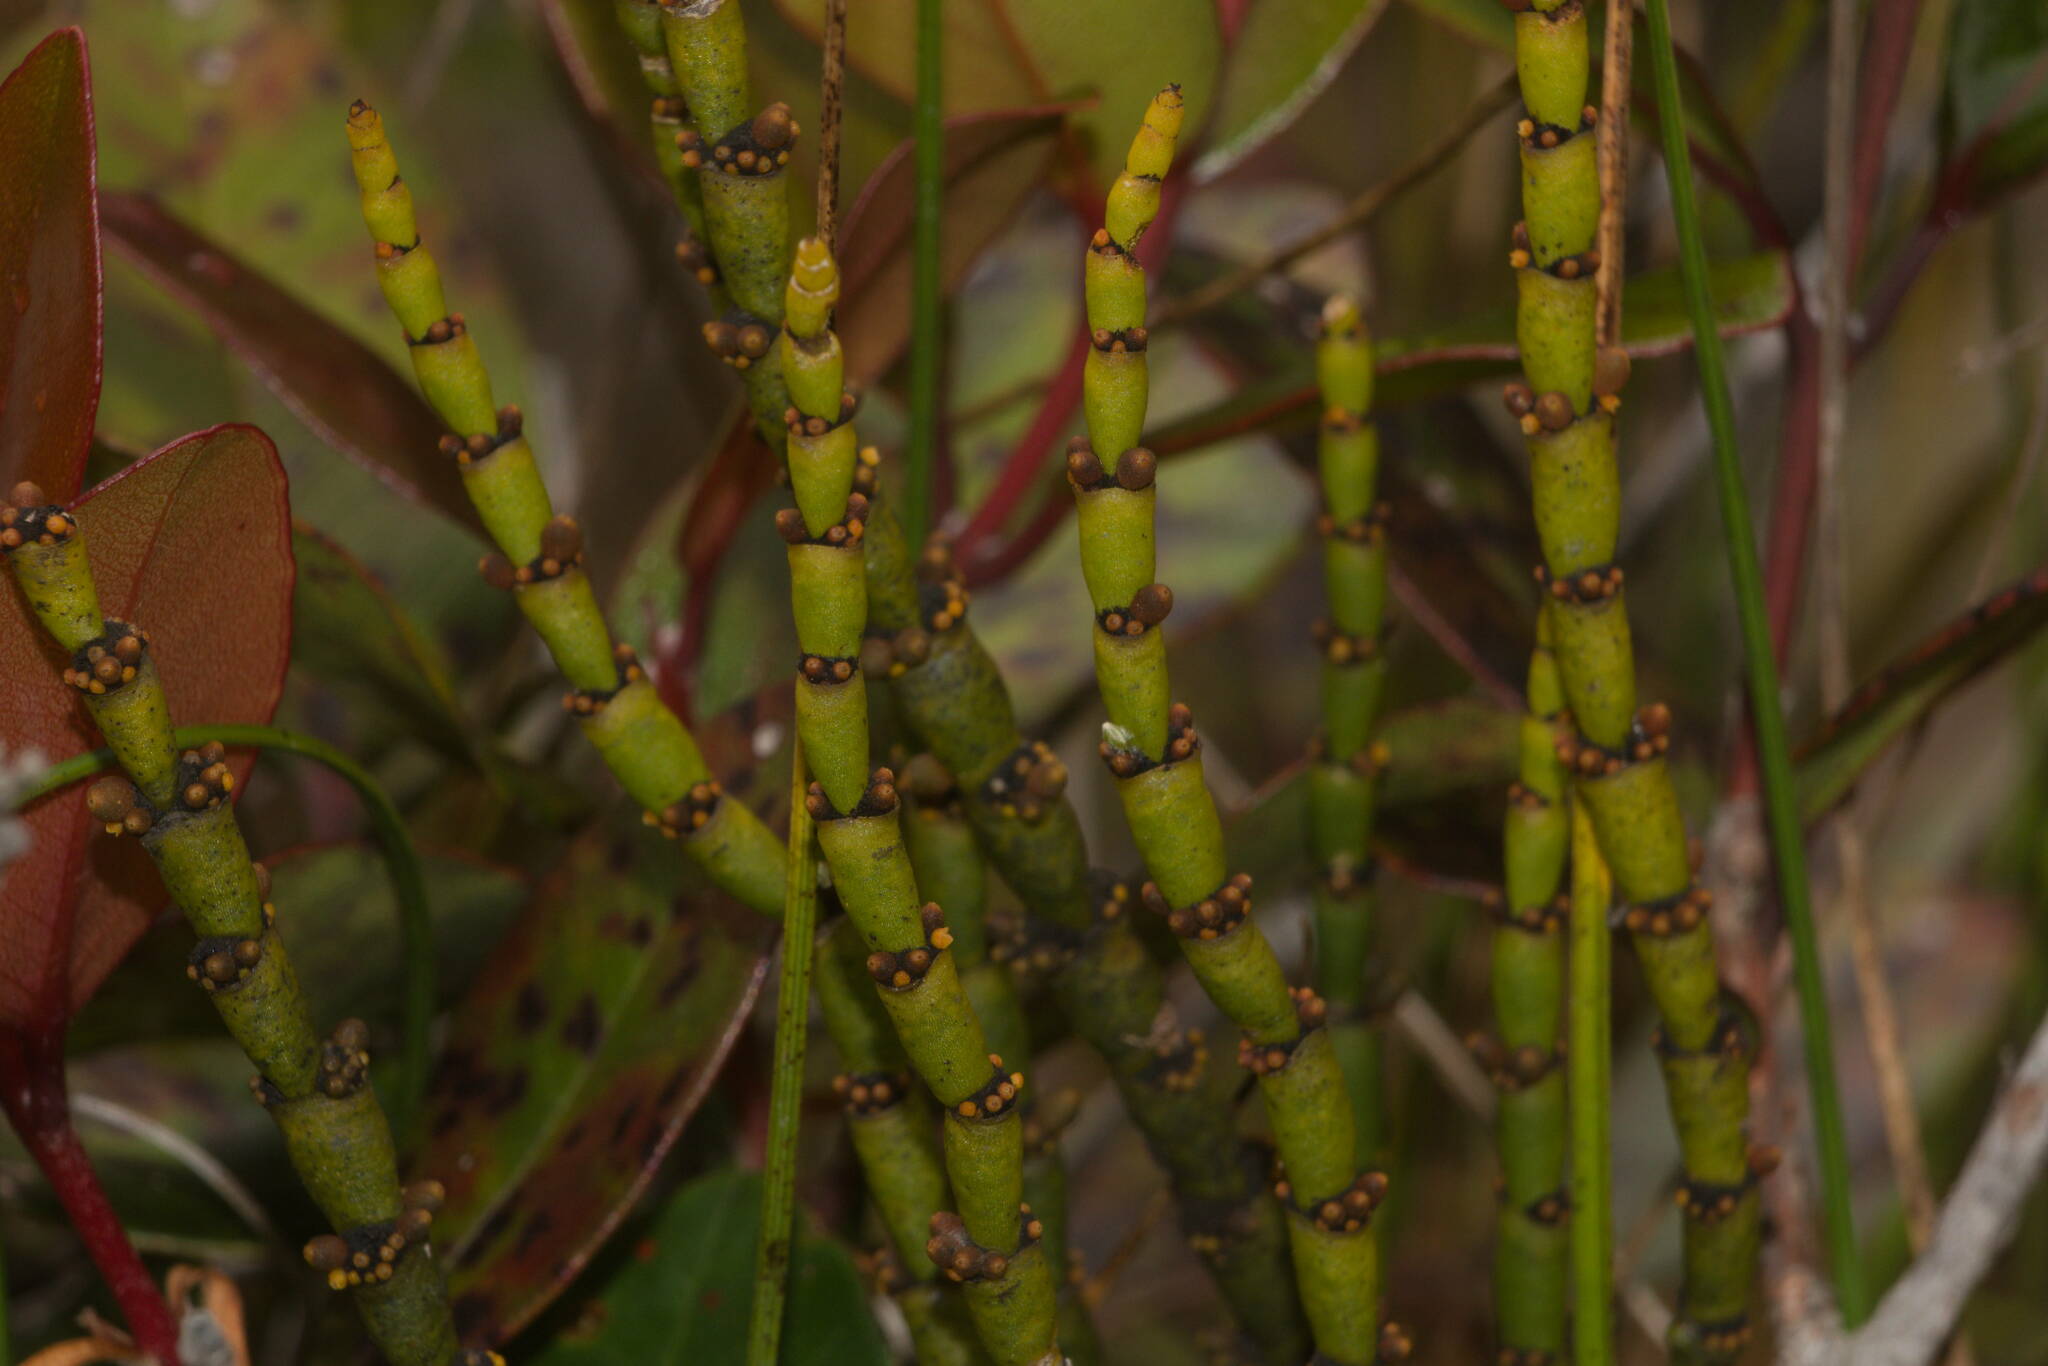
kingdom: Plantae
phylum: Tracheophyta
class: Magnoliopsida
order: Santalales
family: Viscaceae
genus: Korthalsella
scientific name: Korthalsella remyana
